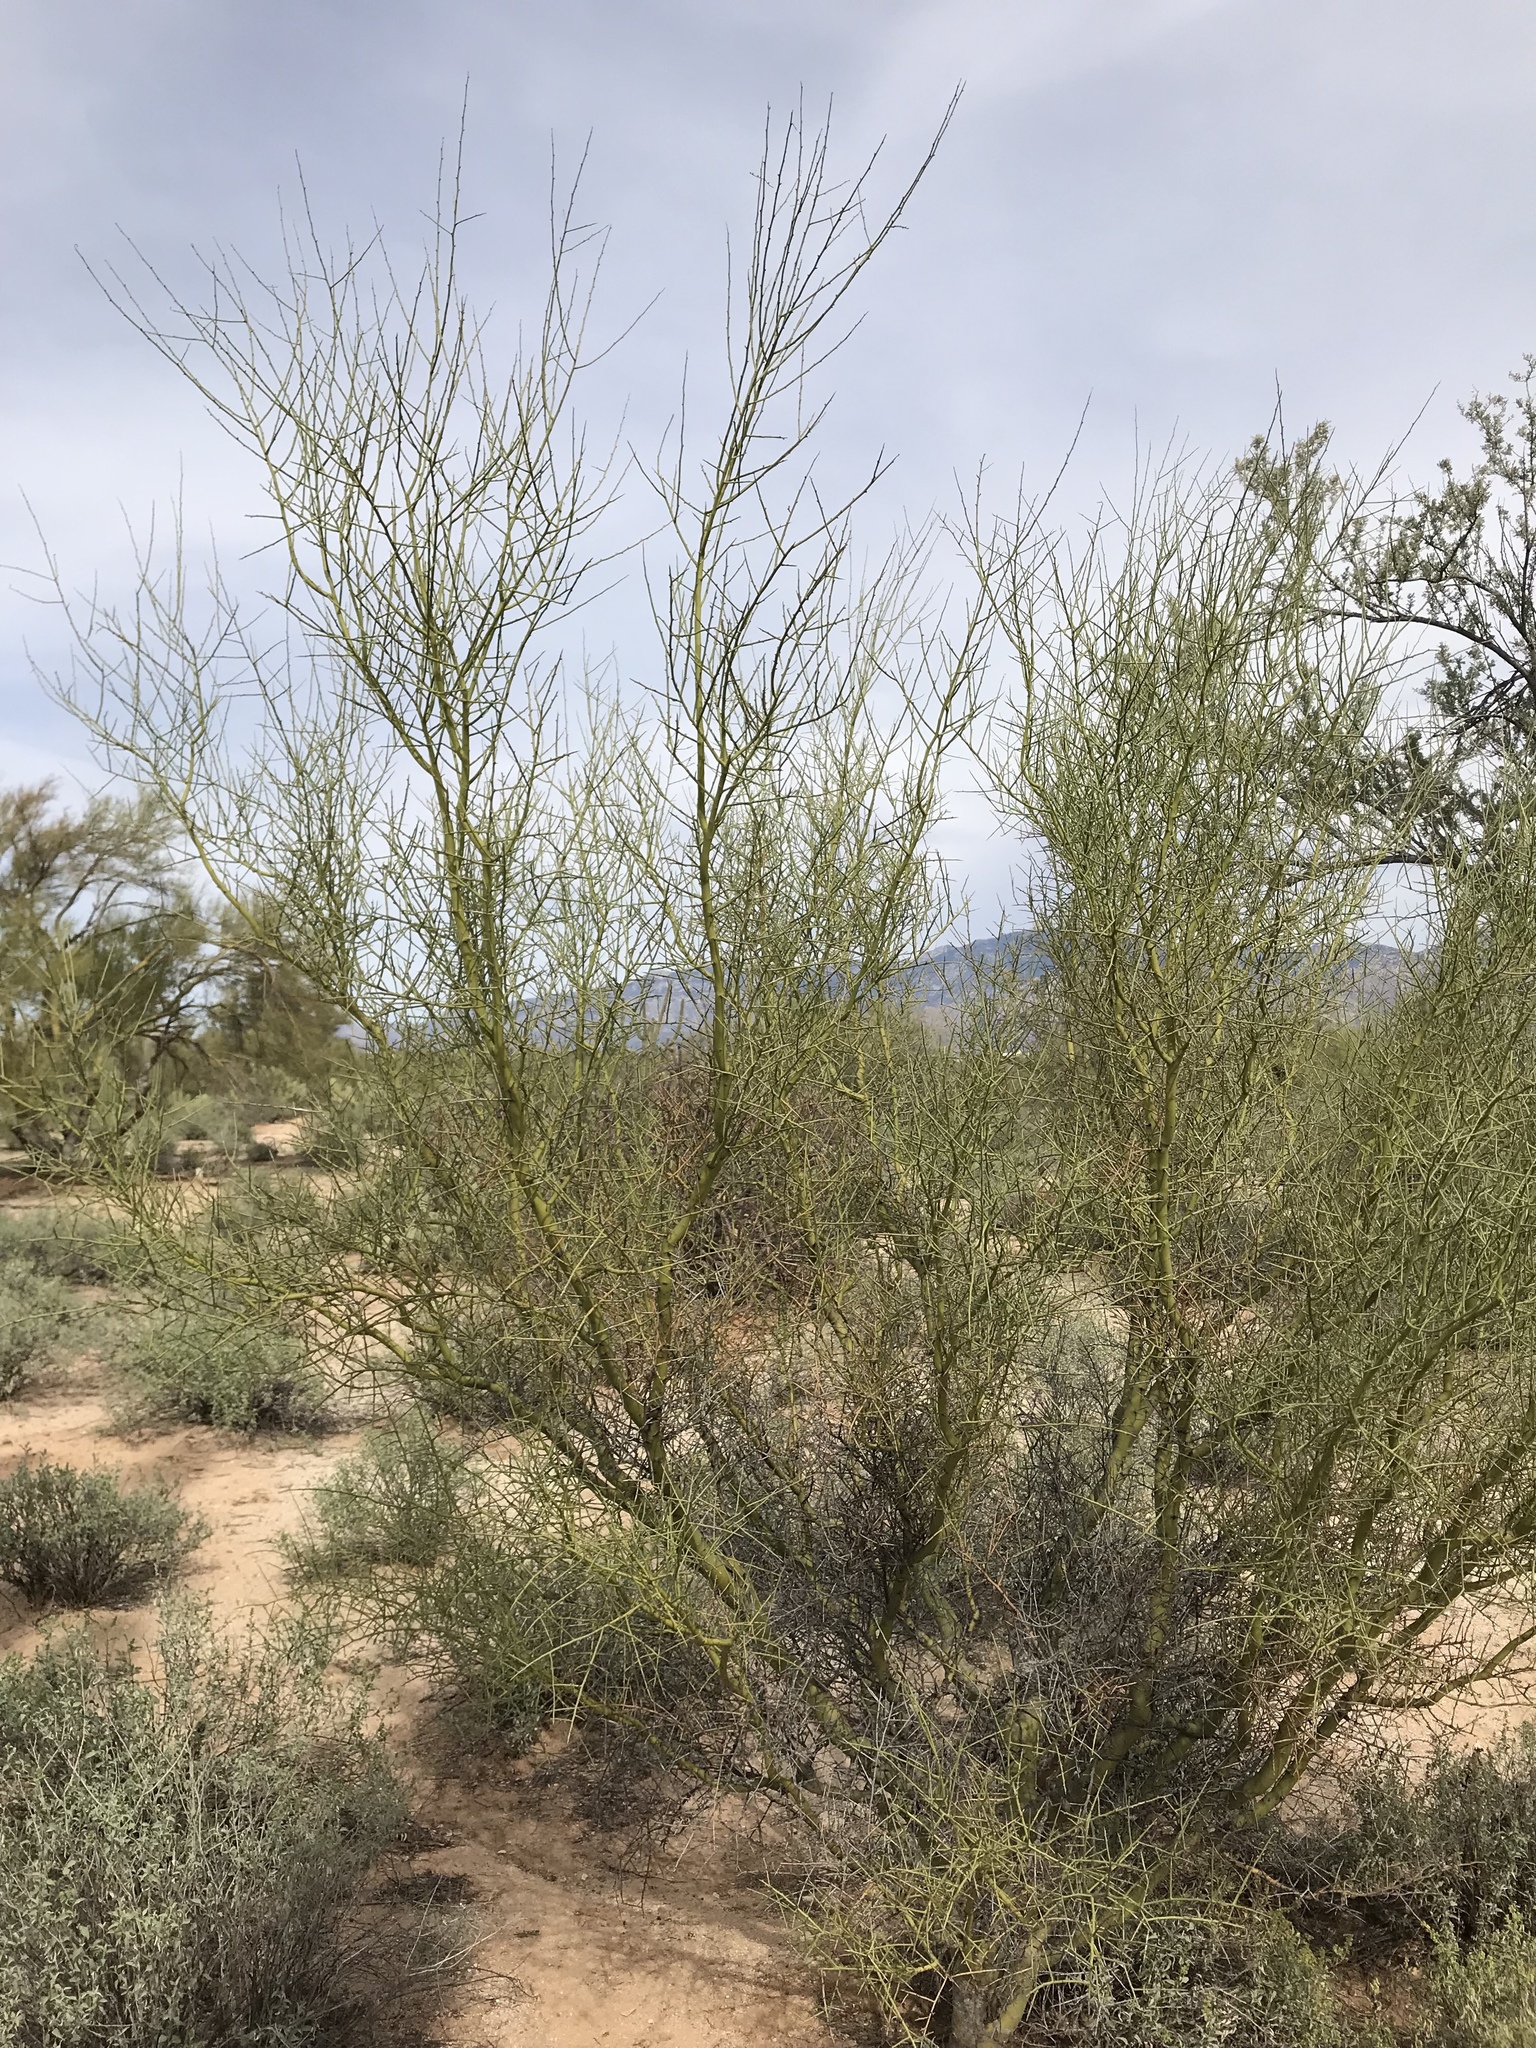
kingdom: Plantae
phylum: Tracheophyta
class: Magnoliopsida
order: Fabales
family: Fabaceae
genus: Parkinsonia
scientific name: Parkinsonia microphylla
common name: Yellow paloverde
